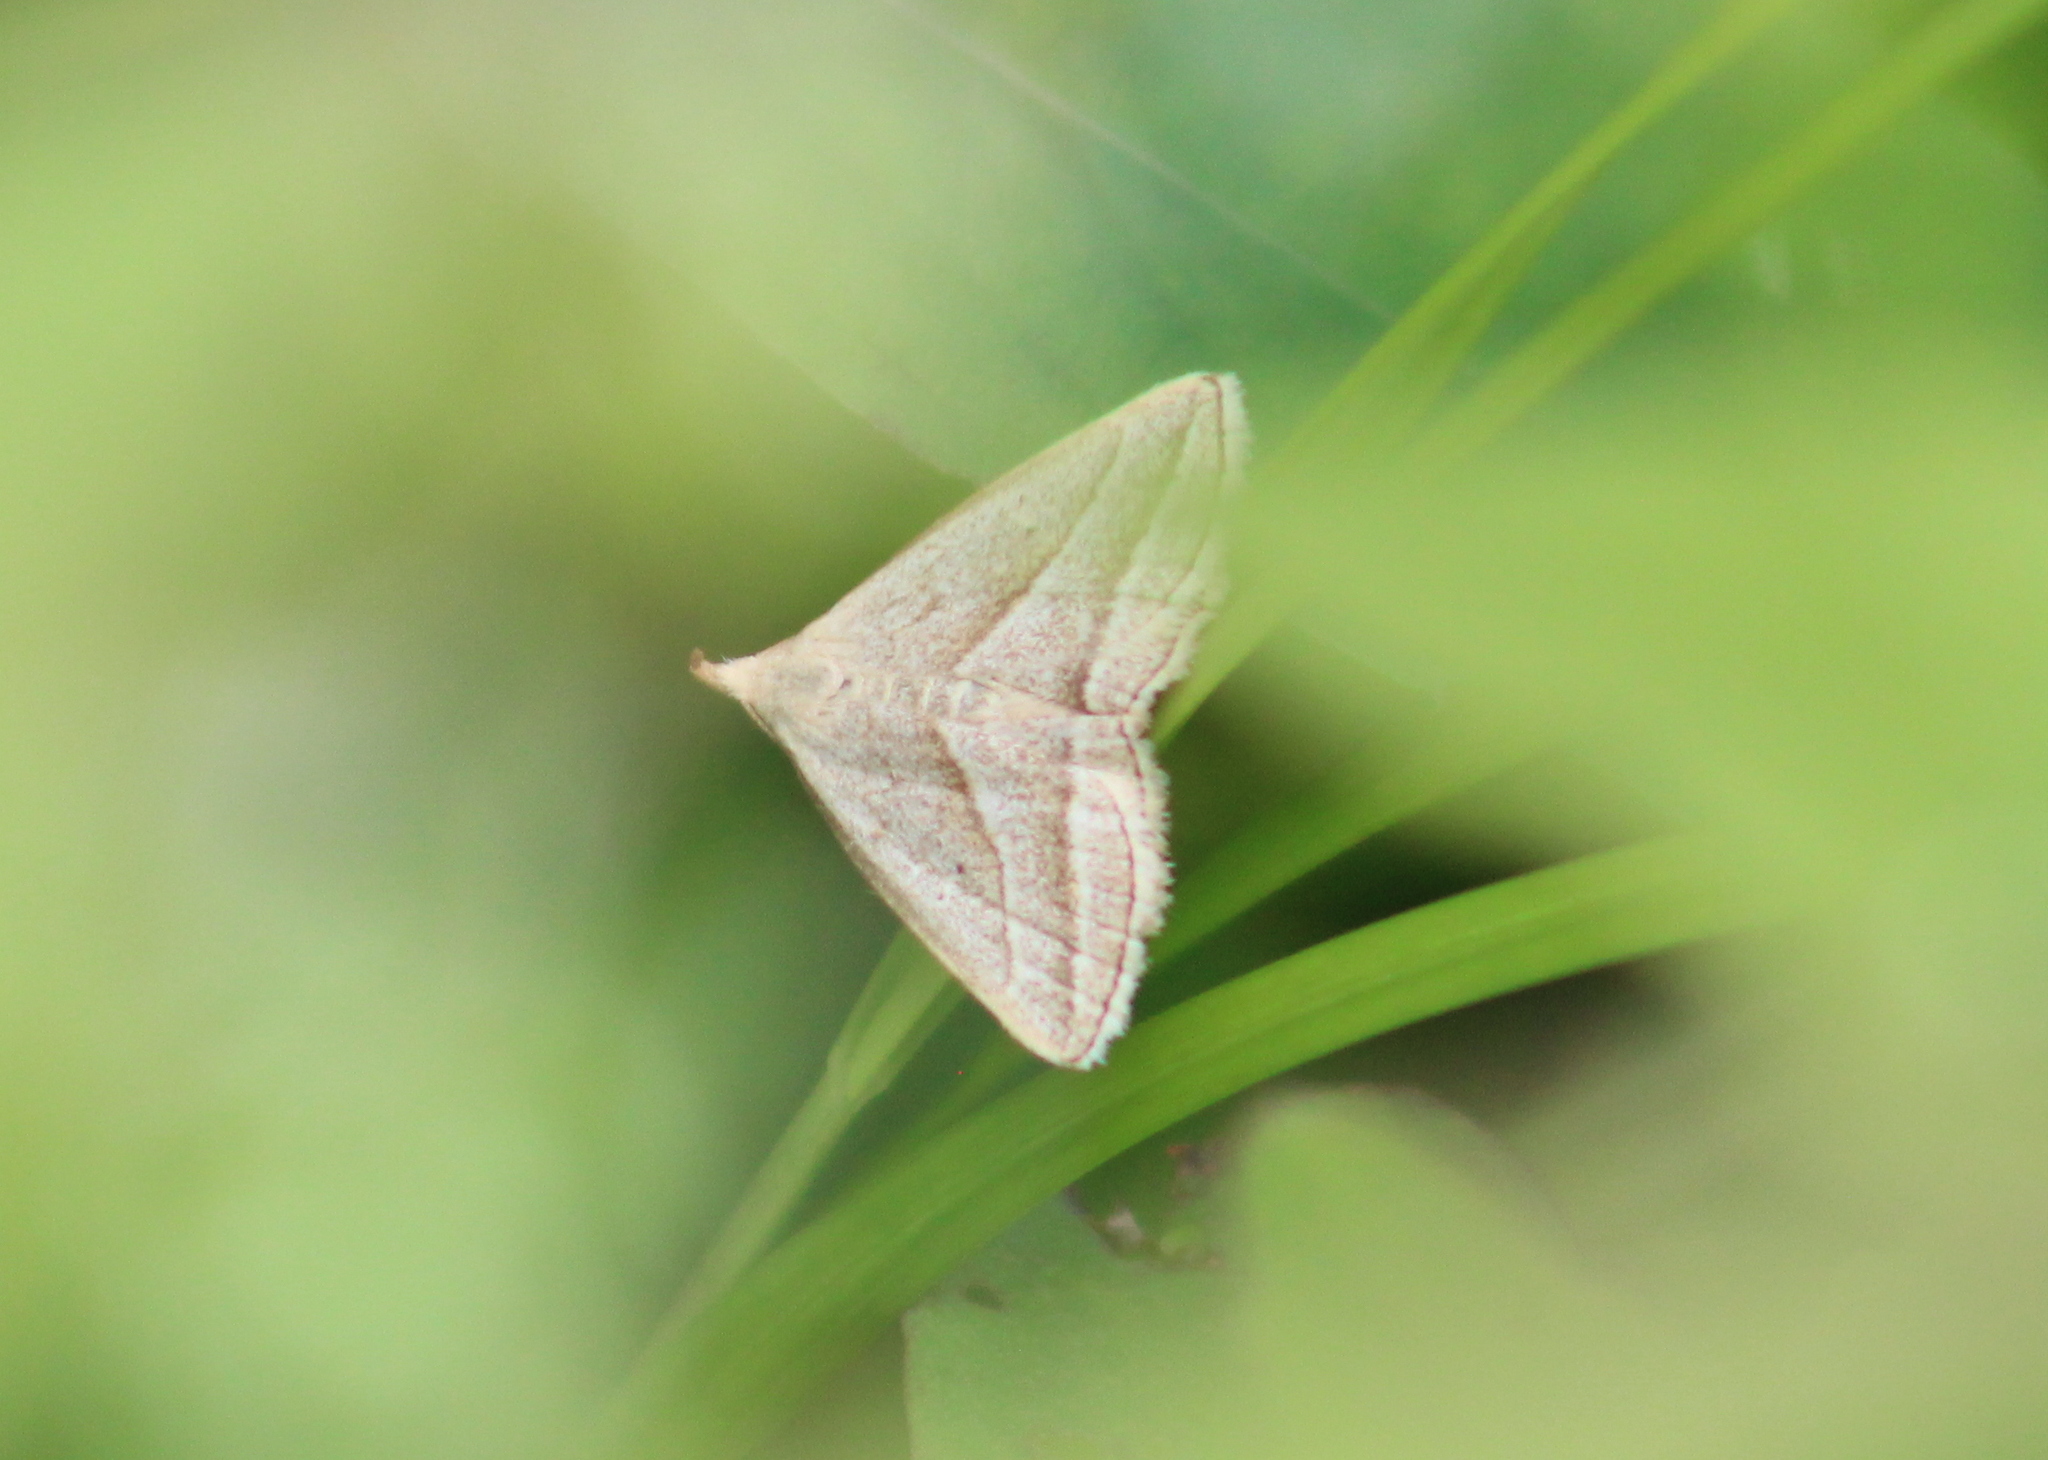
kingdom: Animalia
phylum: Arthropoda
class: Insecta
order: Lepidoptera
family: Erebidae
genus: Macrochilo
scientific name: Macrochilo absorptalis
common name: Slant-lined owlet
